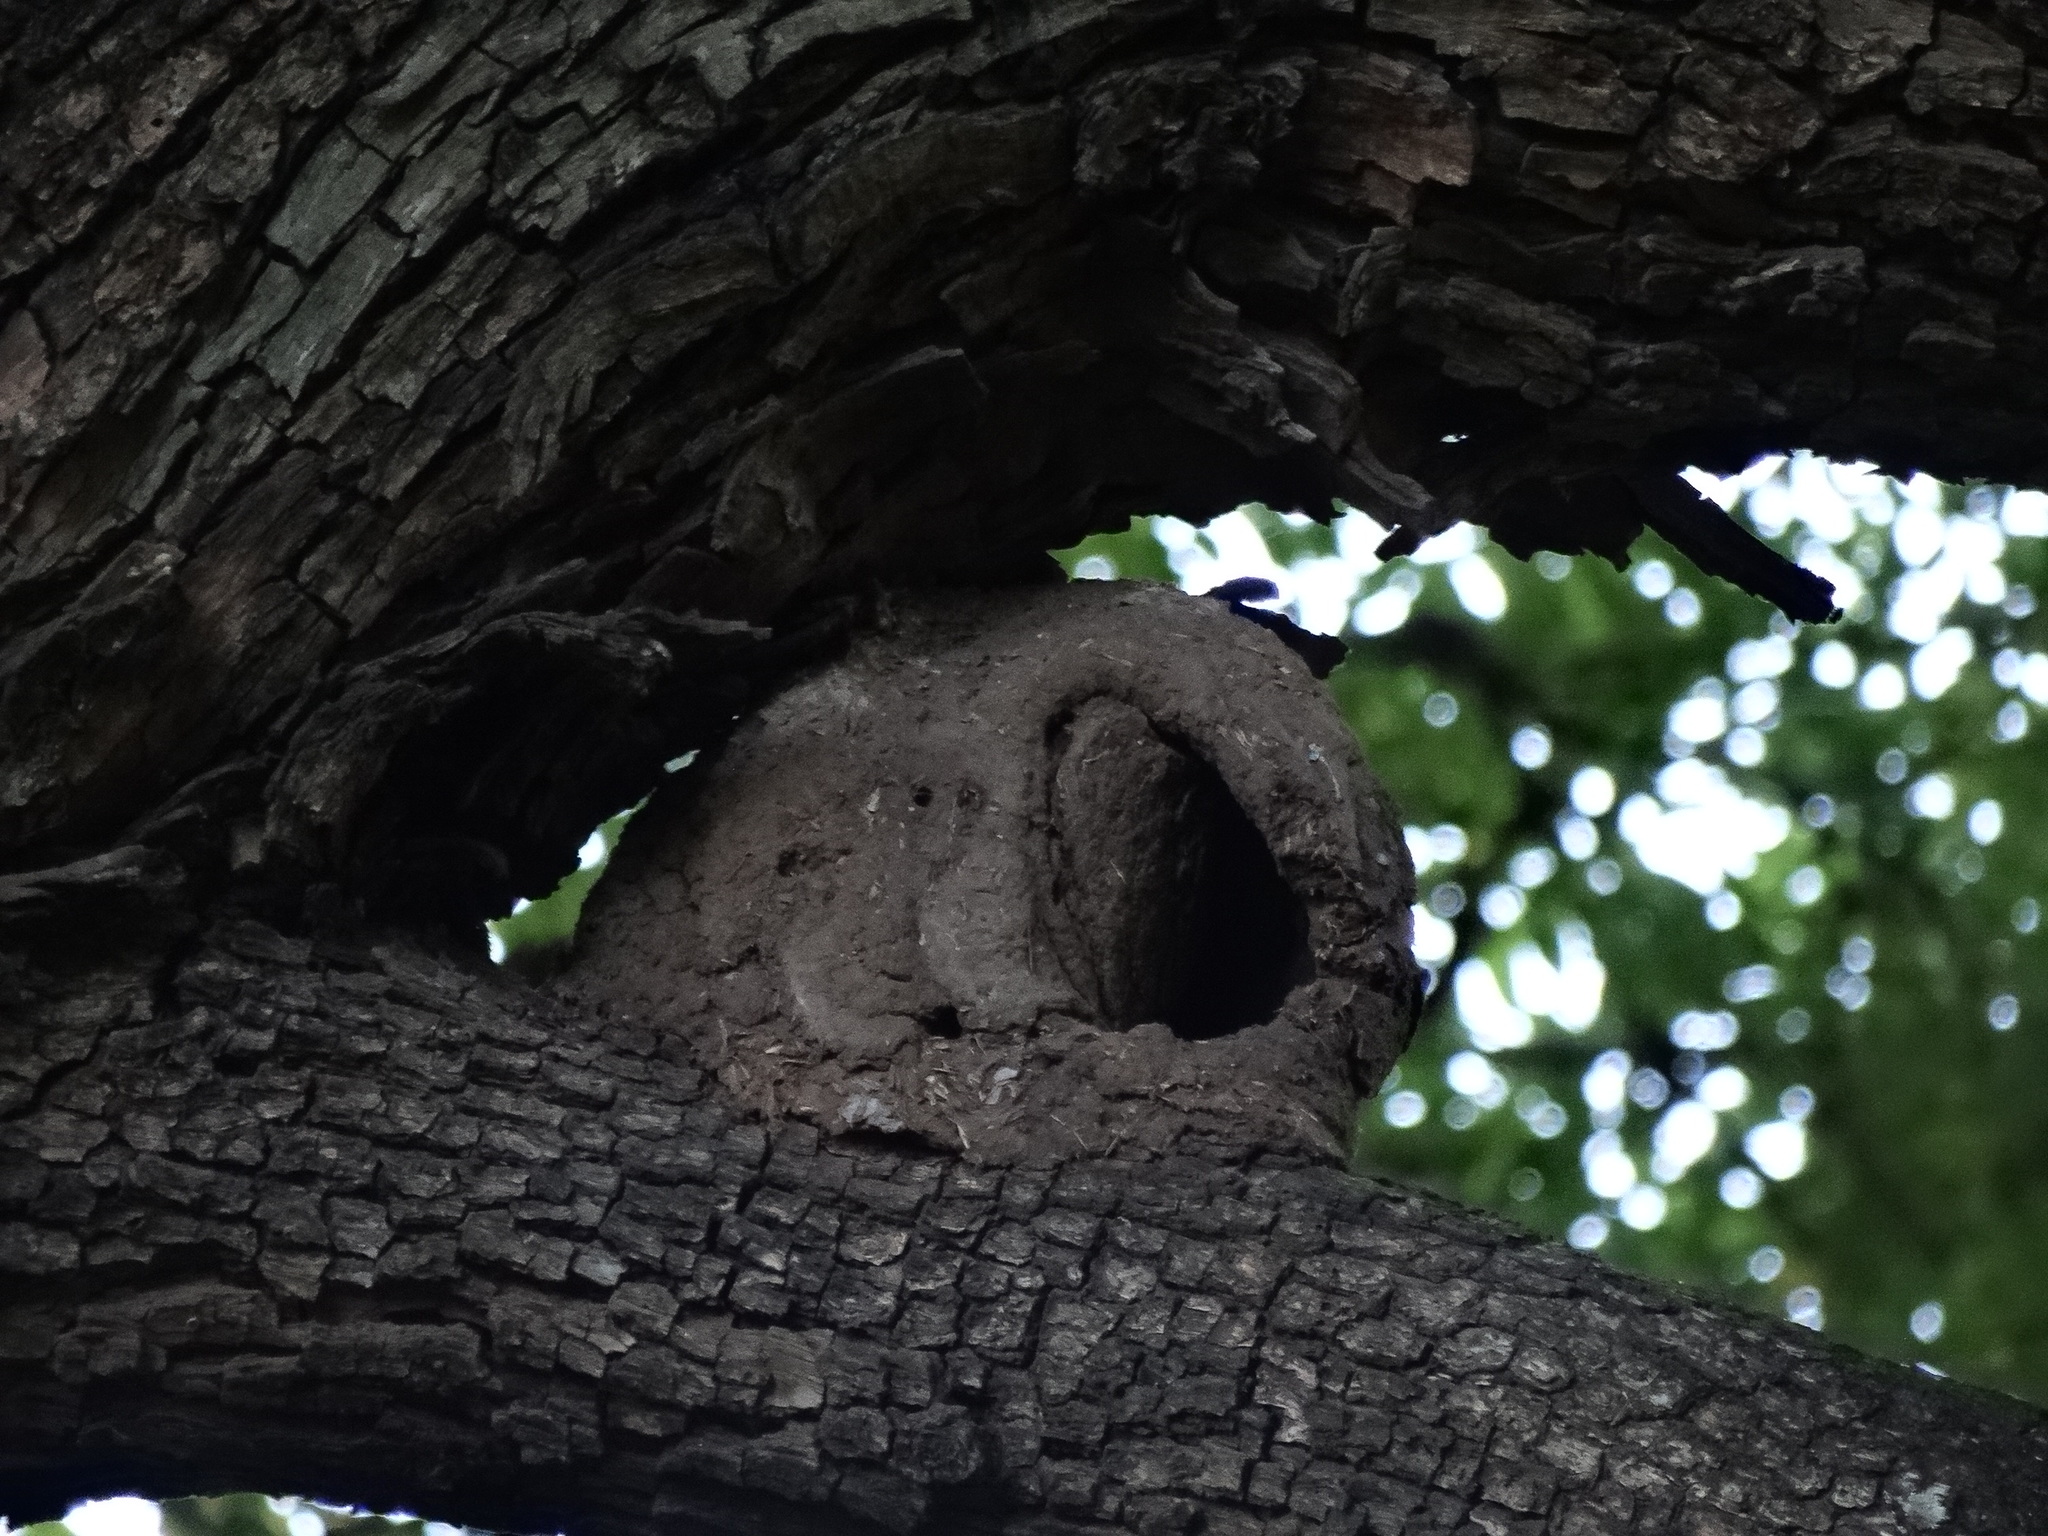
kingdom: Animalia
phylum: Chordata
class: Aves
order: Passeriformes
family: Furnariidae
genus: Furnarius
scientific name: Furnarius rufus
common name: Rufous hornero
